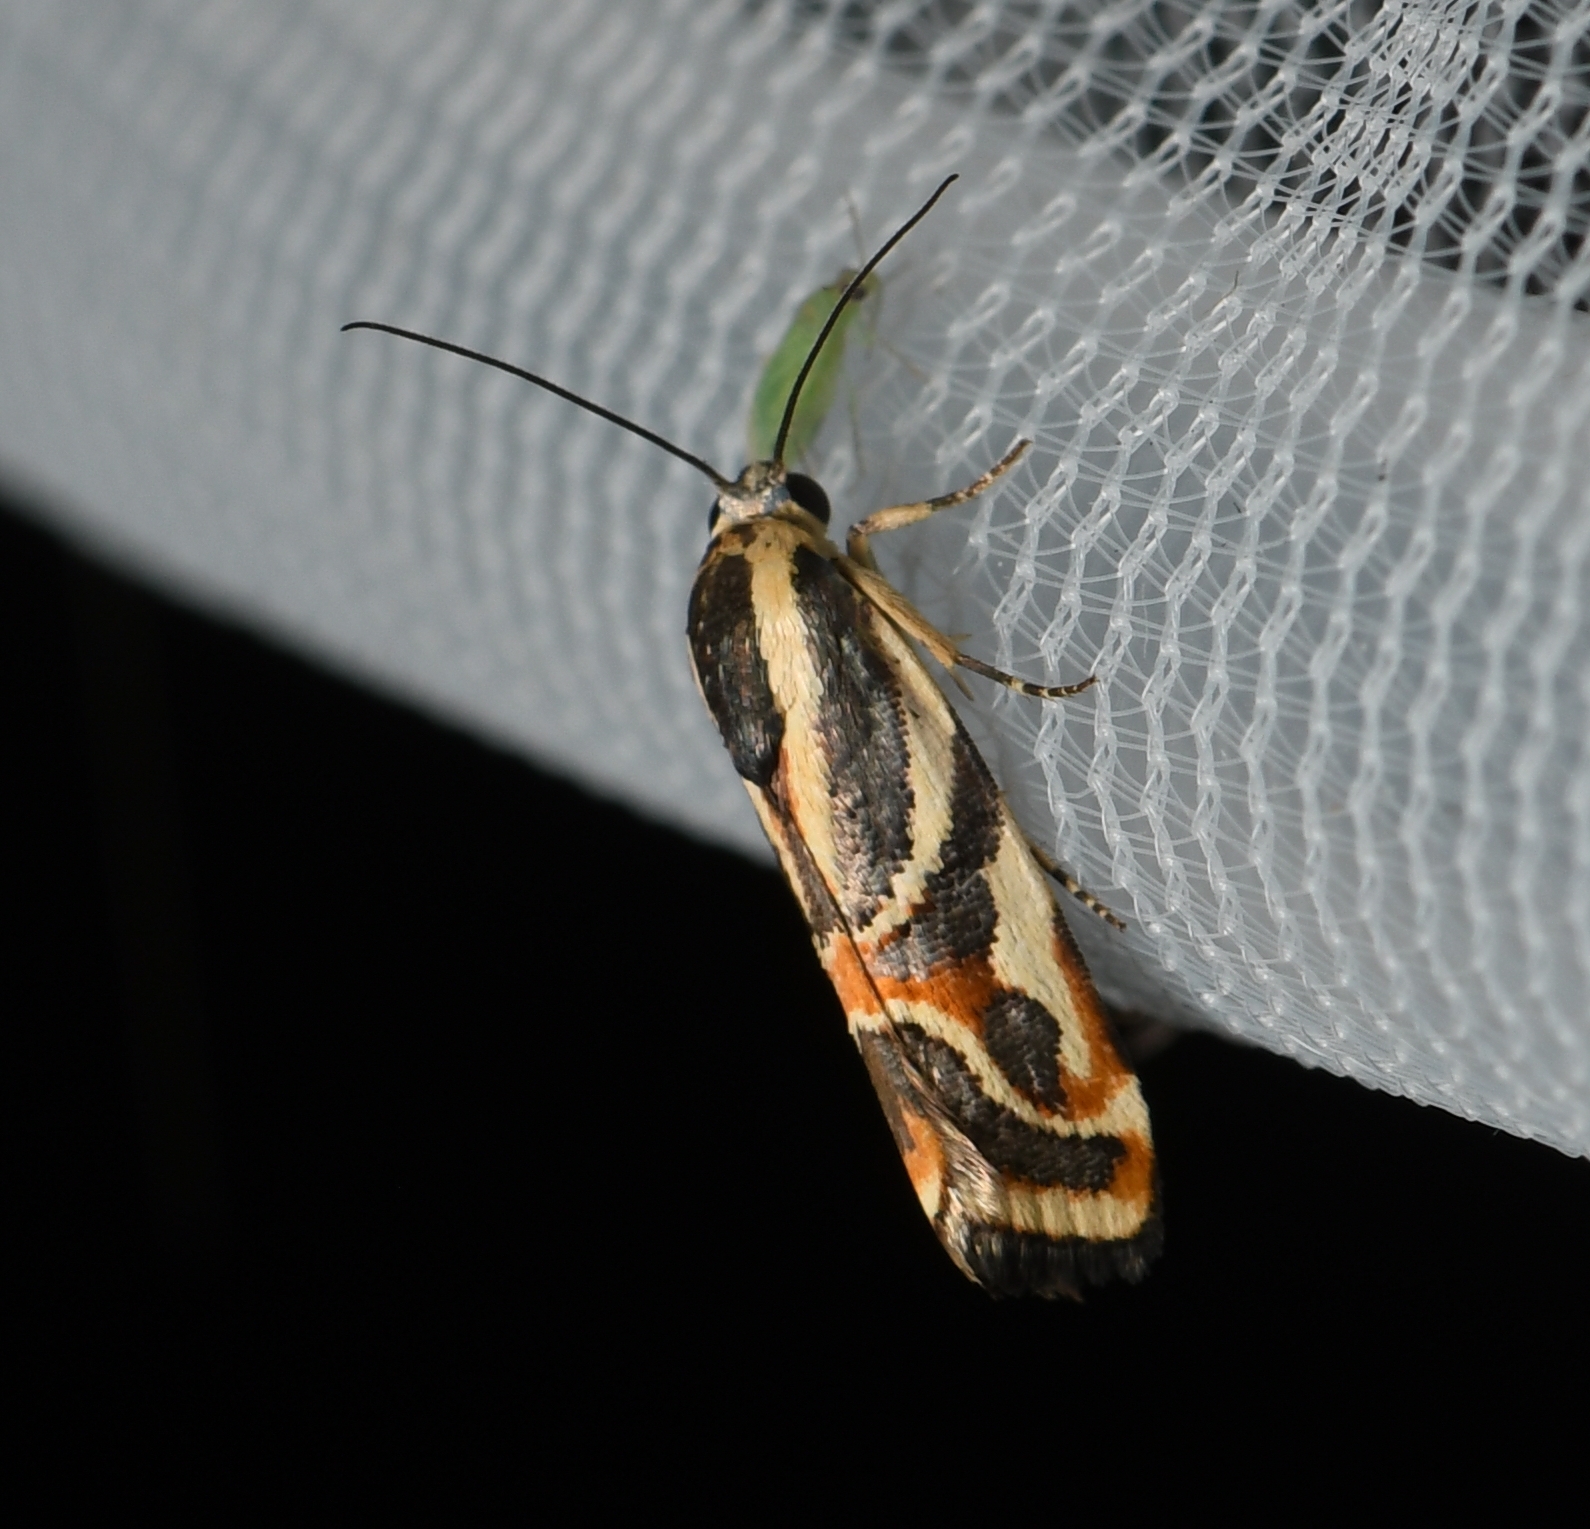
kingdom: Animalia
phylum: Arthropoda
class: Insecta
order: Lepidoptera
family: Noctuidae
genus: Spragueia
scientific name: Spragueia magnifica
